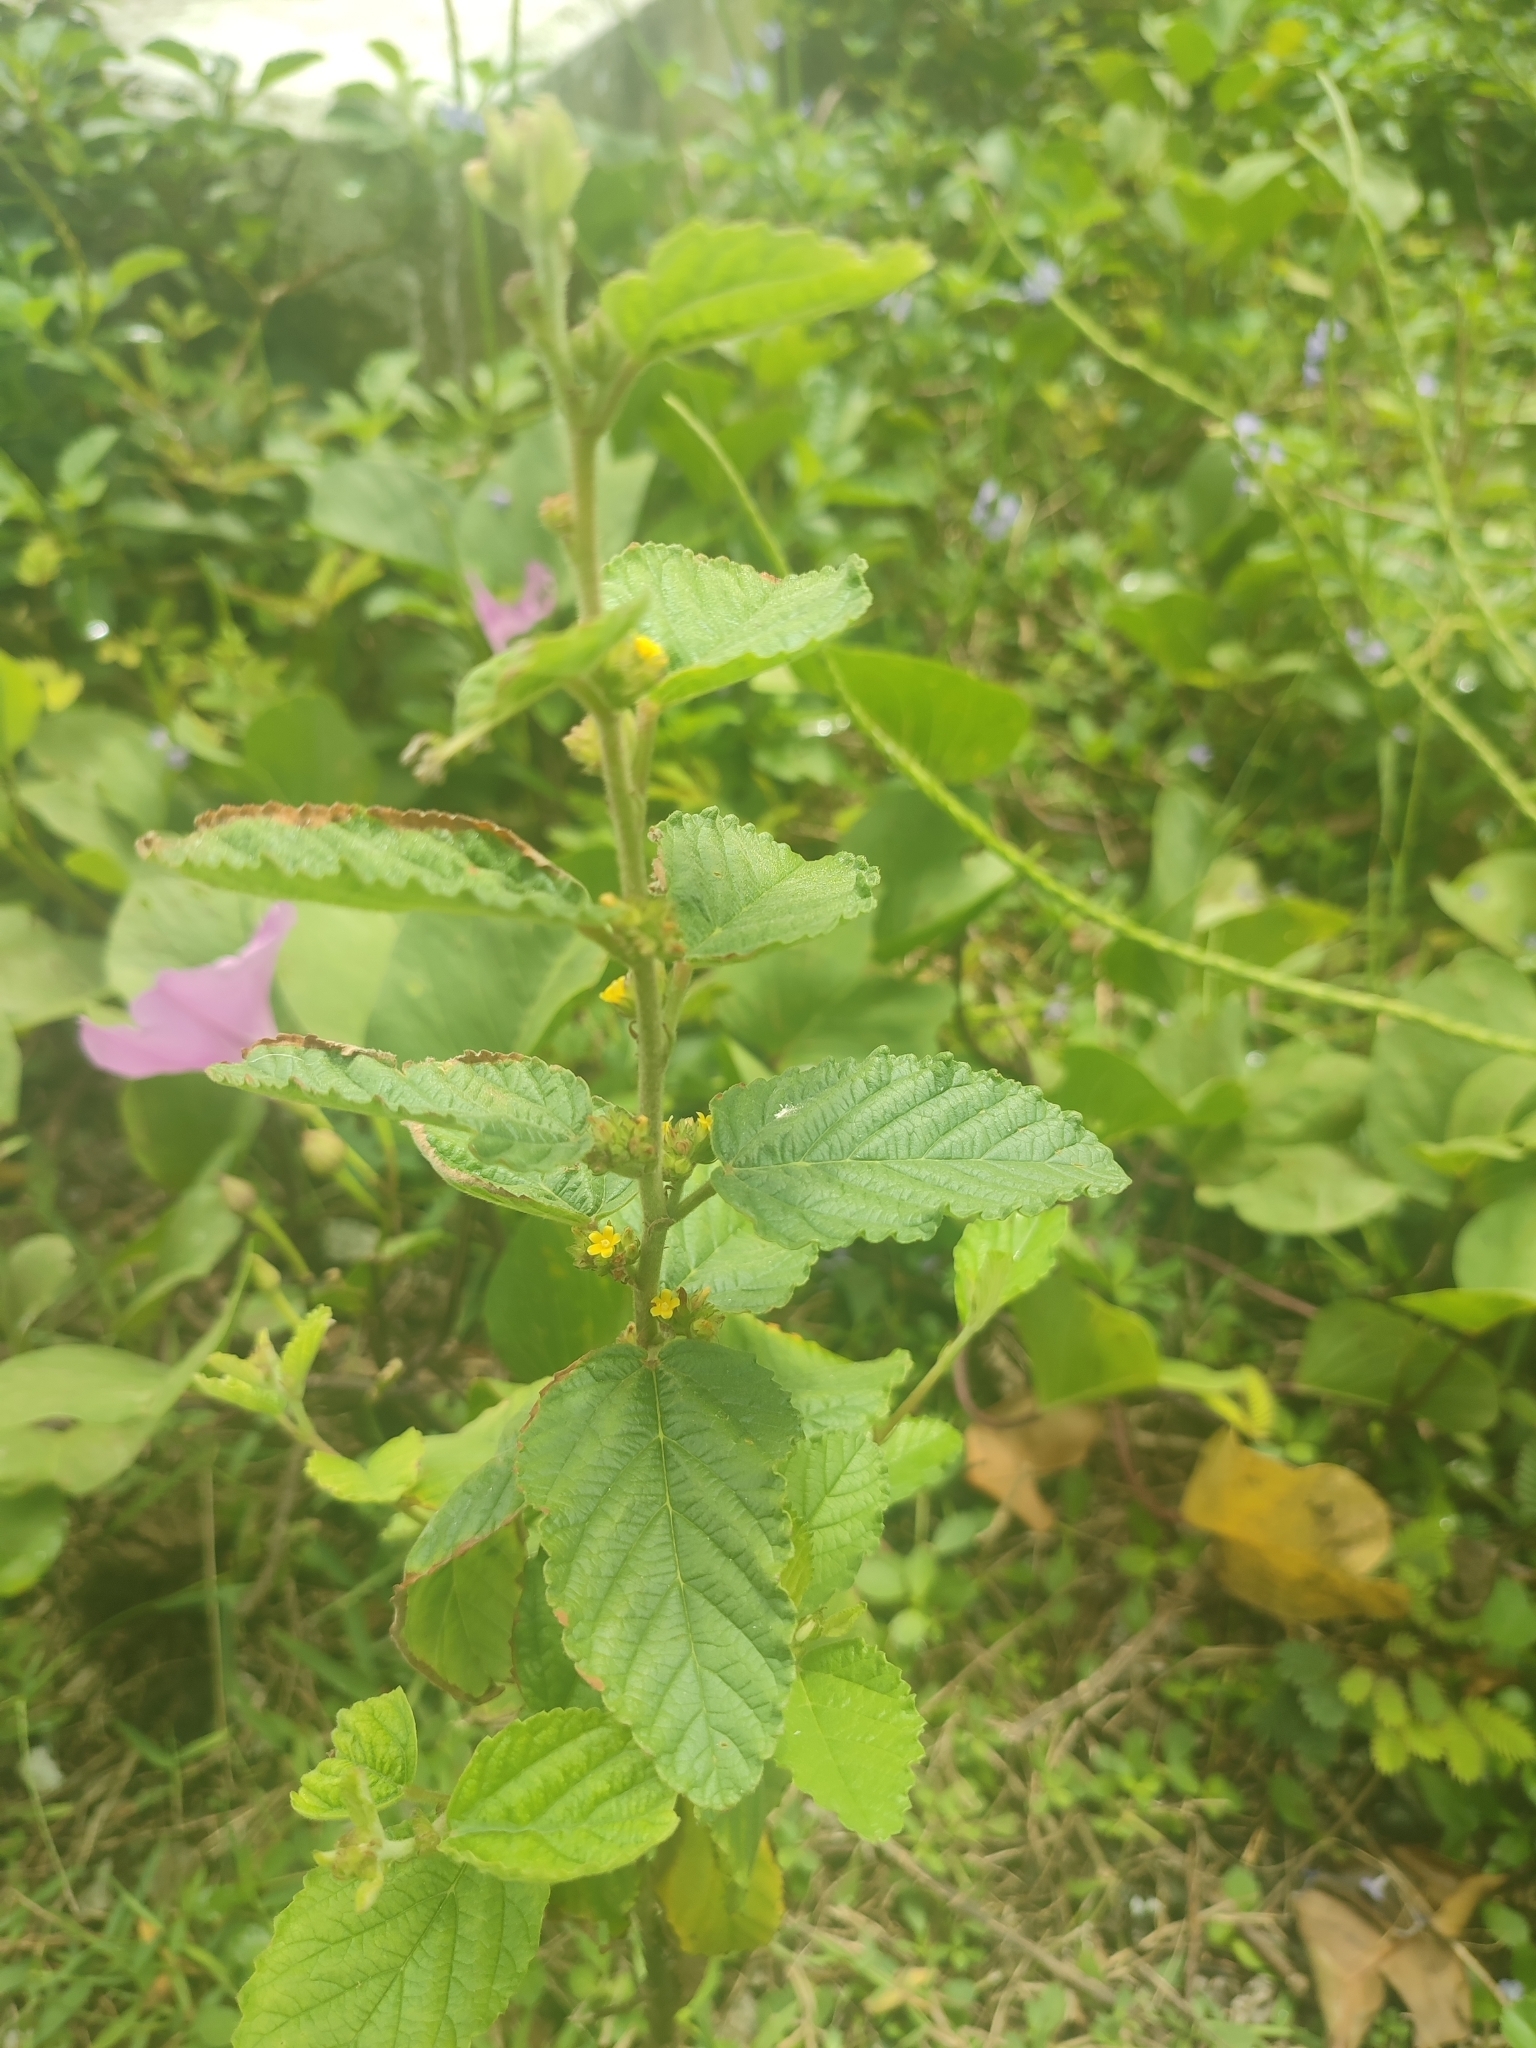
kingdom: Plantae
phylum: Tracheophyta
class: Magnoliopsida
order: Malvales
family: Malvaceae
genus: Waltheria
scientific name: Waltheria indica
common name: Leather-coat
